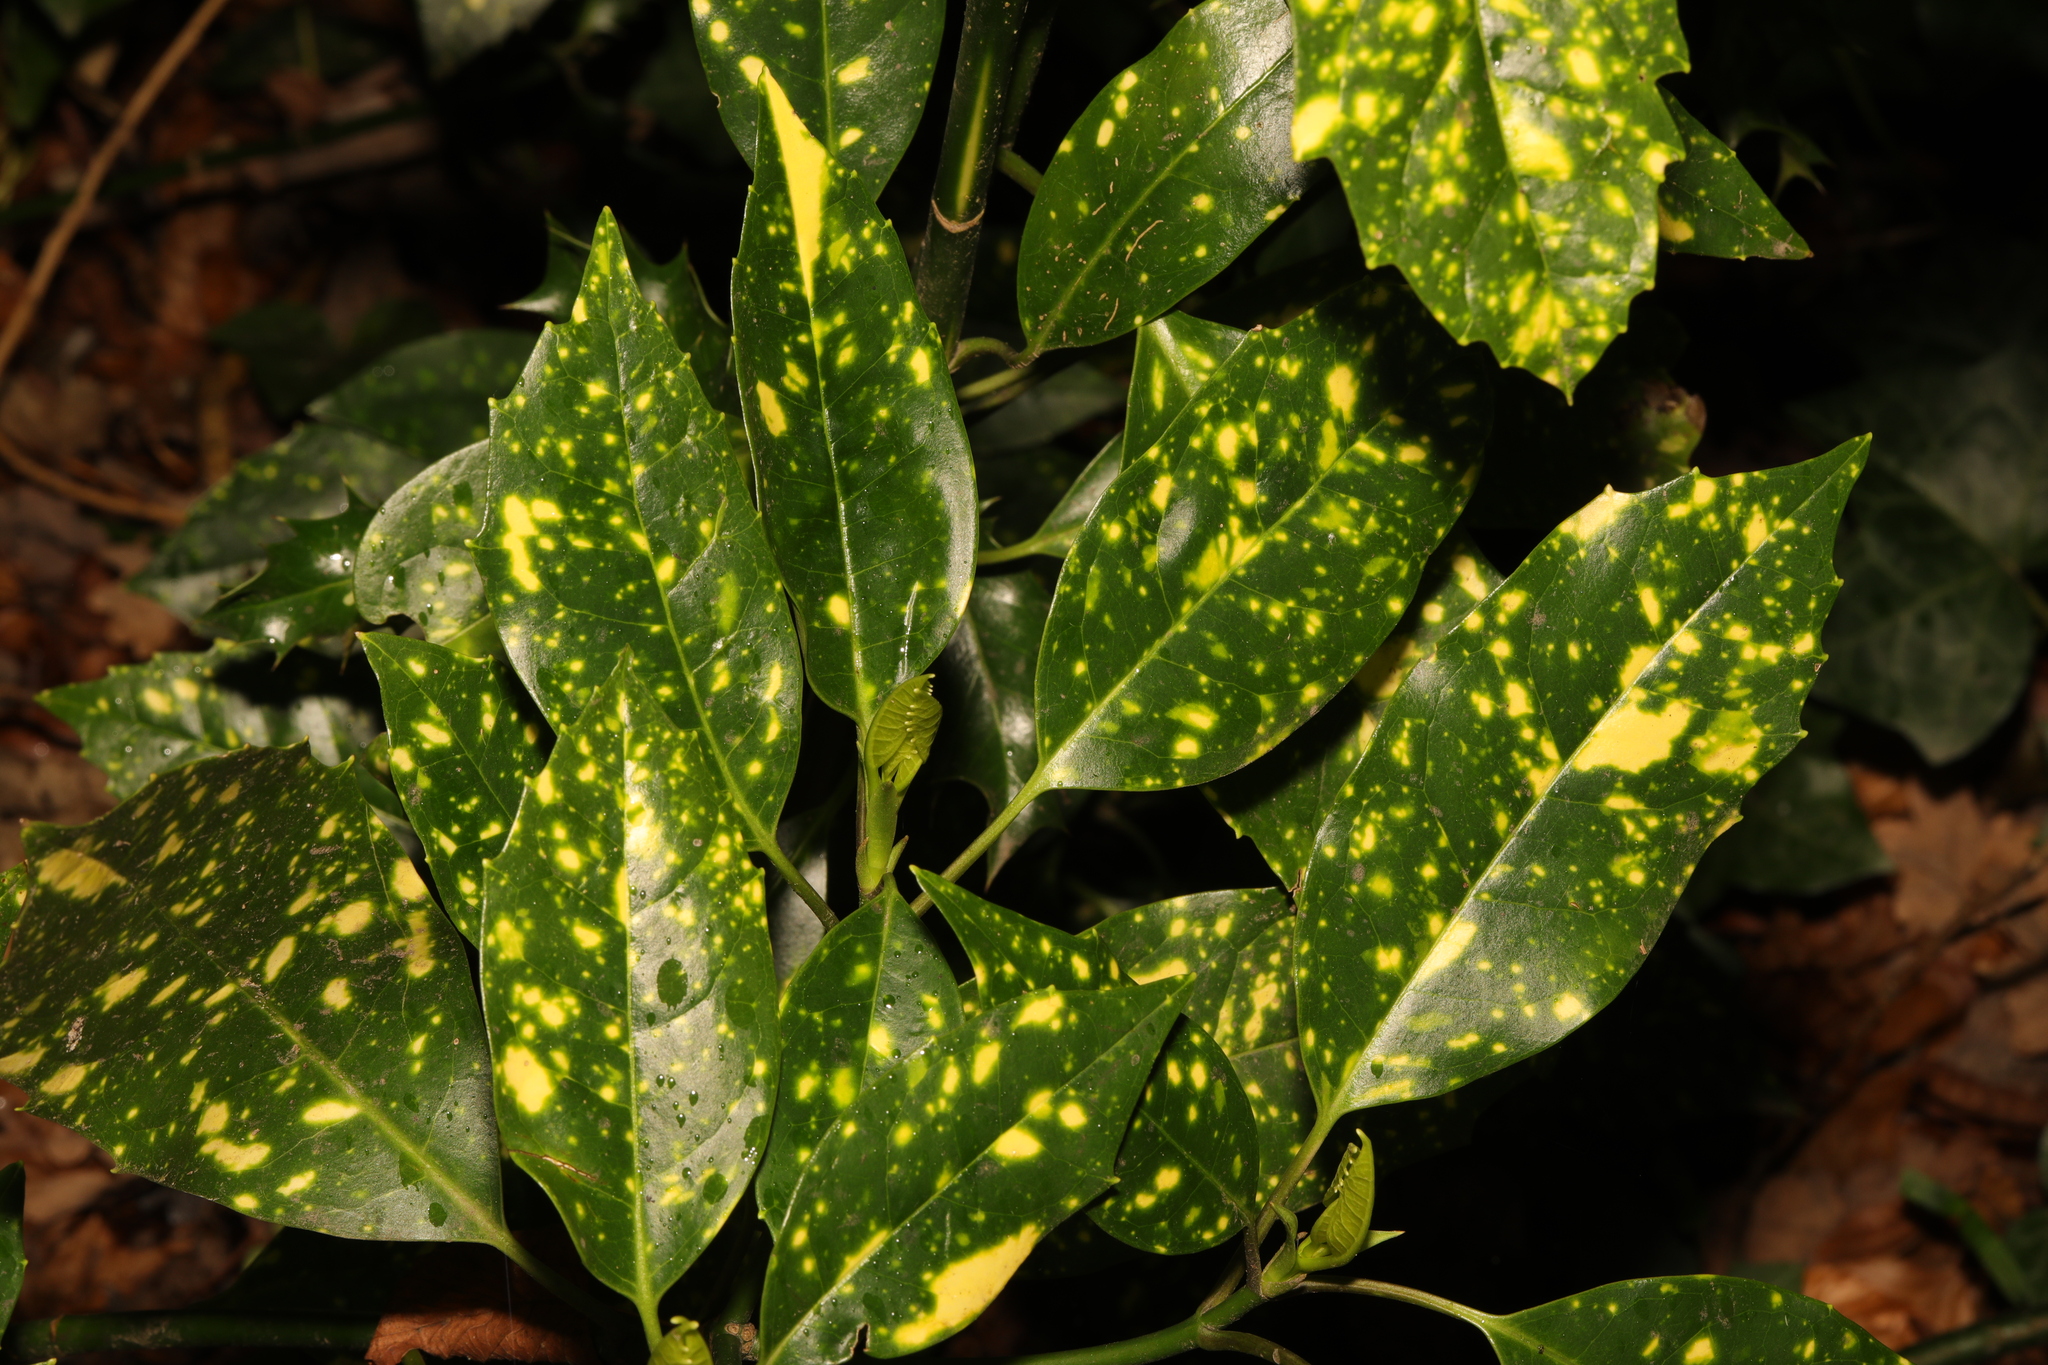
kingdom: Plantae
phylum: Tracheophyta
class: Magnoliopsida
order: Garryales
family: Garryaceae
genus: Aucuba
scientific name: Aucuba japonica
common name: Spotted-laurel
